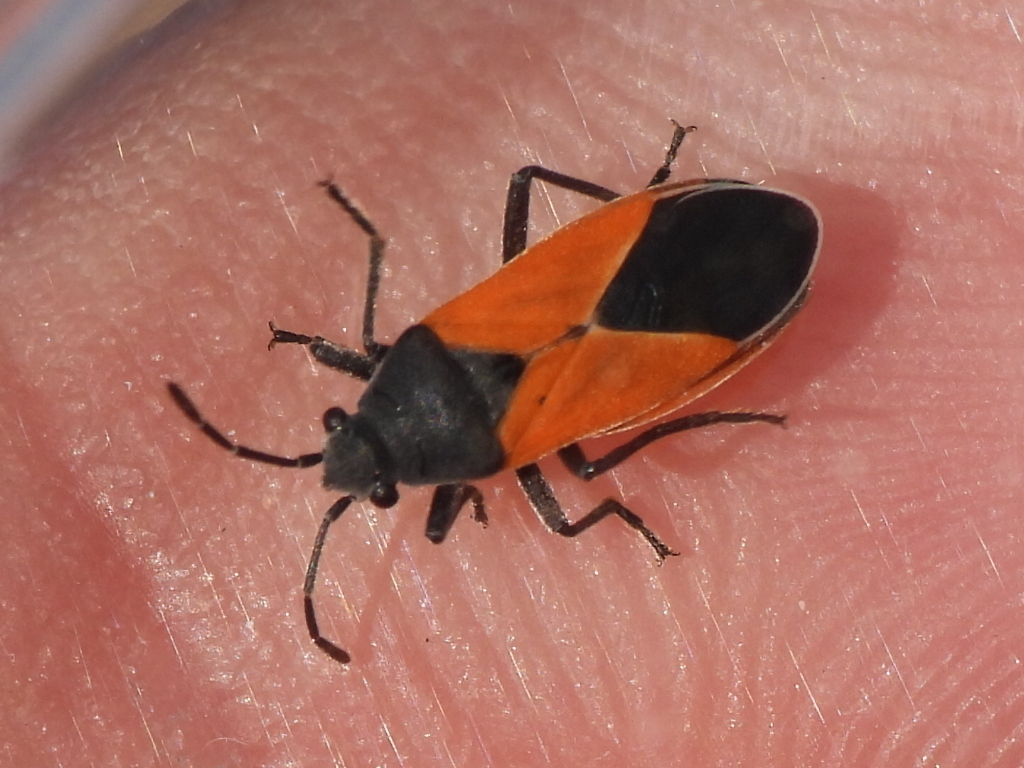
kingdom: Animalia
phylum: Arthropoda
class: Insecta
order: Hemiptera
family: Lygaeidae
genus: Melanopleurus
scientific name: Melanopleurus belfragei
